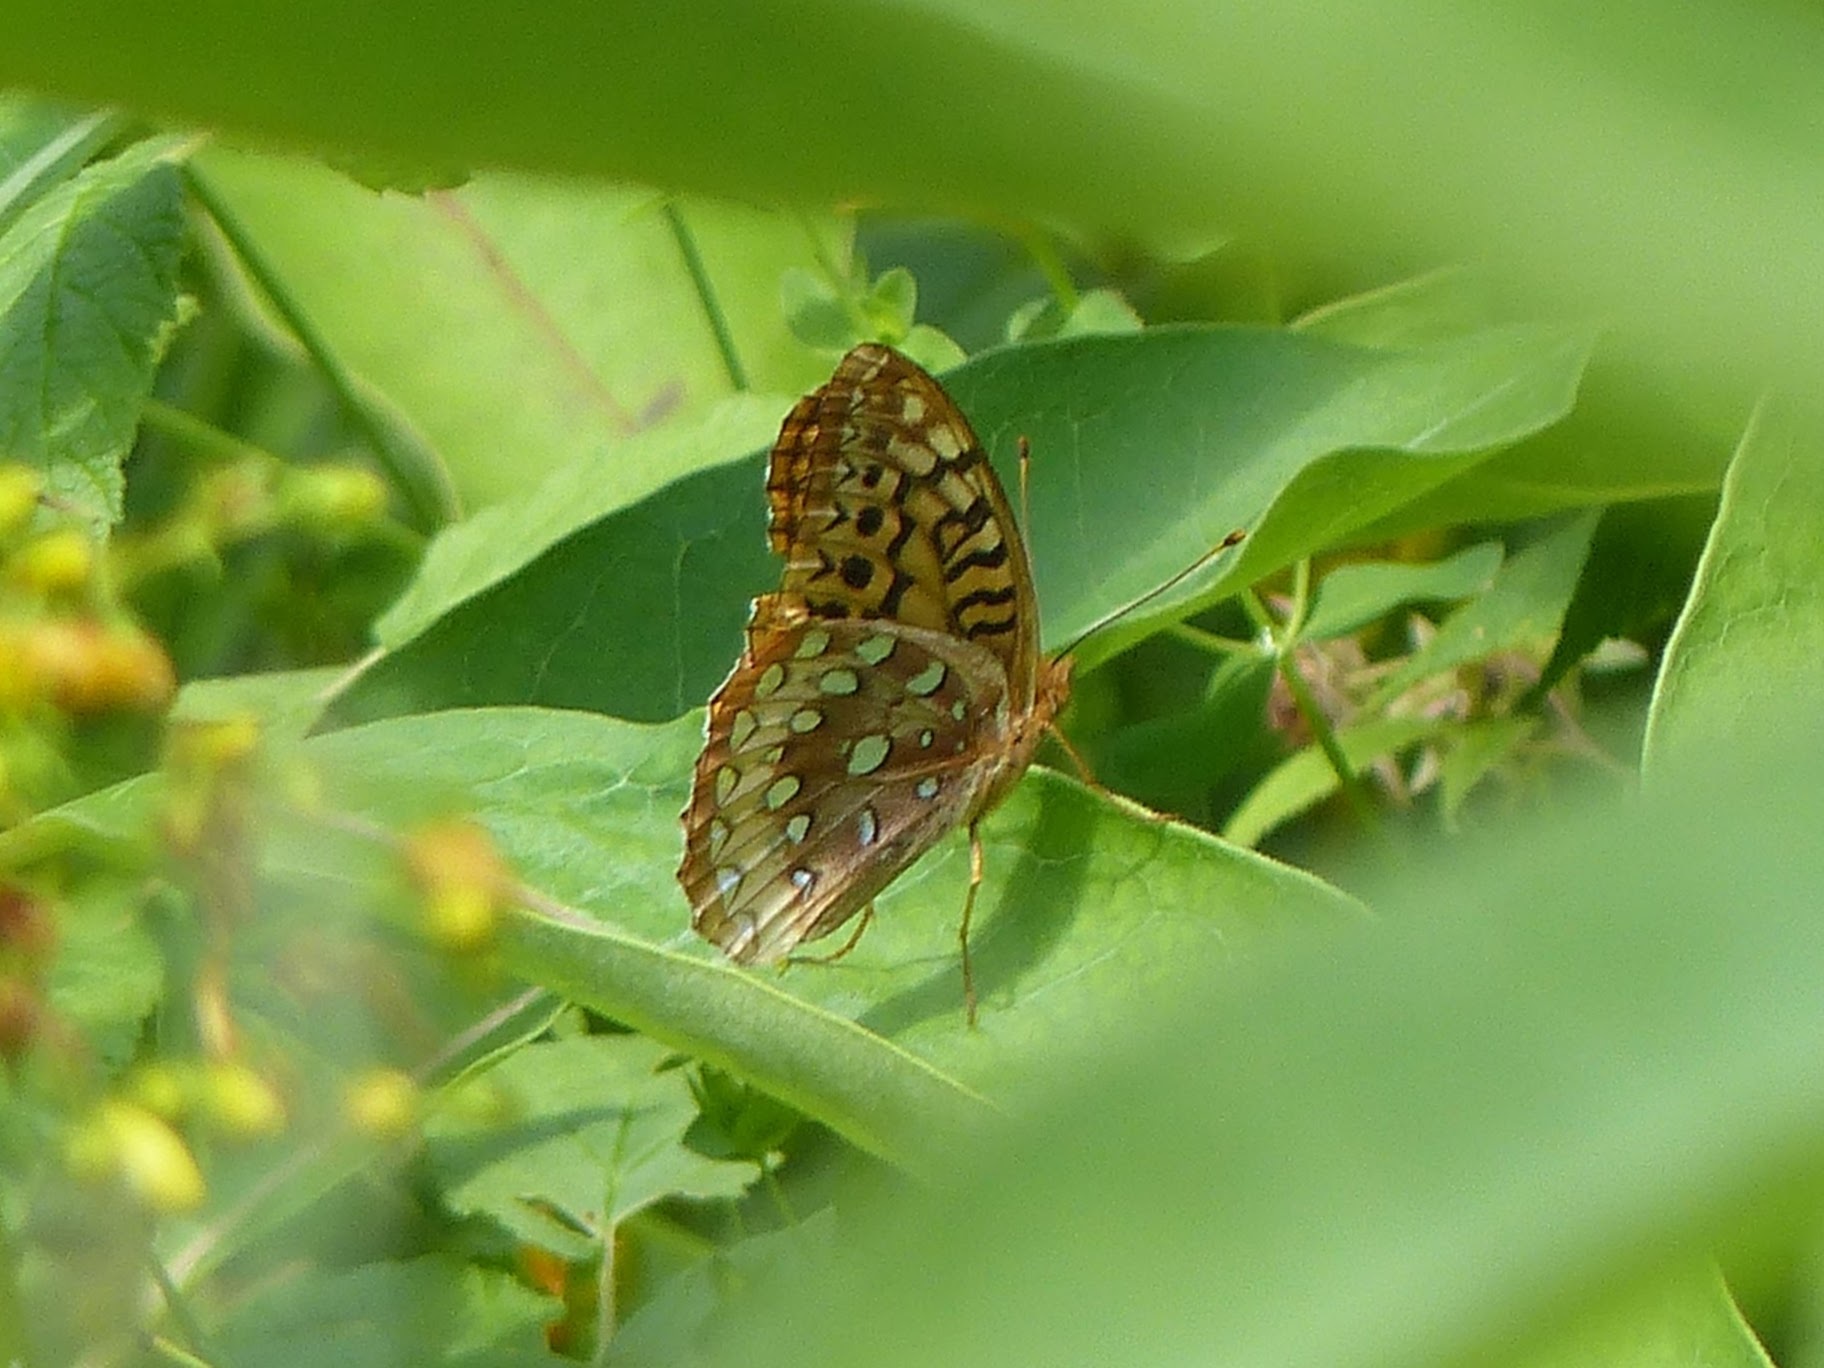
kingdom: Animalia
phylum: Arthropoda
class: Insecta
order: Lepidoptera
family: Nymphalidae
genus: Speyeria
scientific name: Speyeria cybele
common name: Great spangled fritillary
